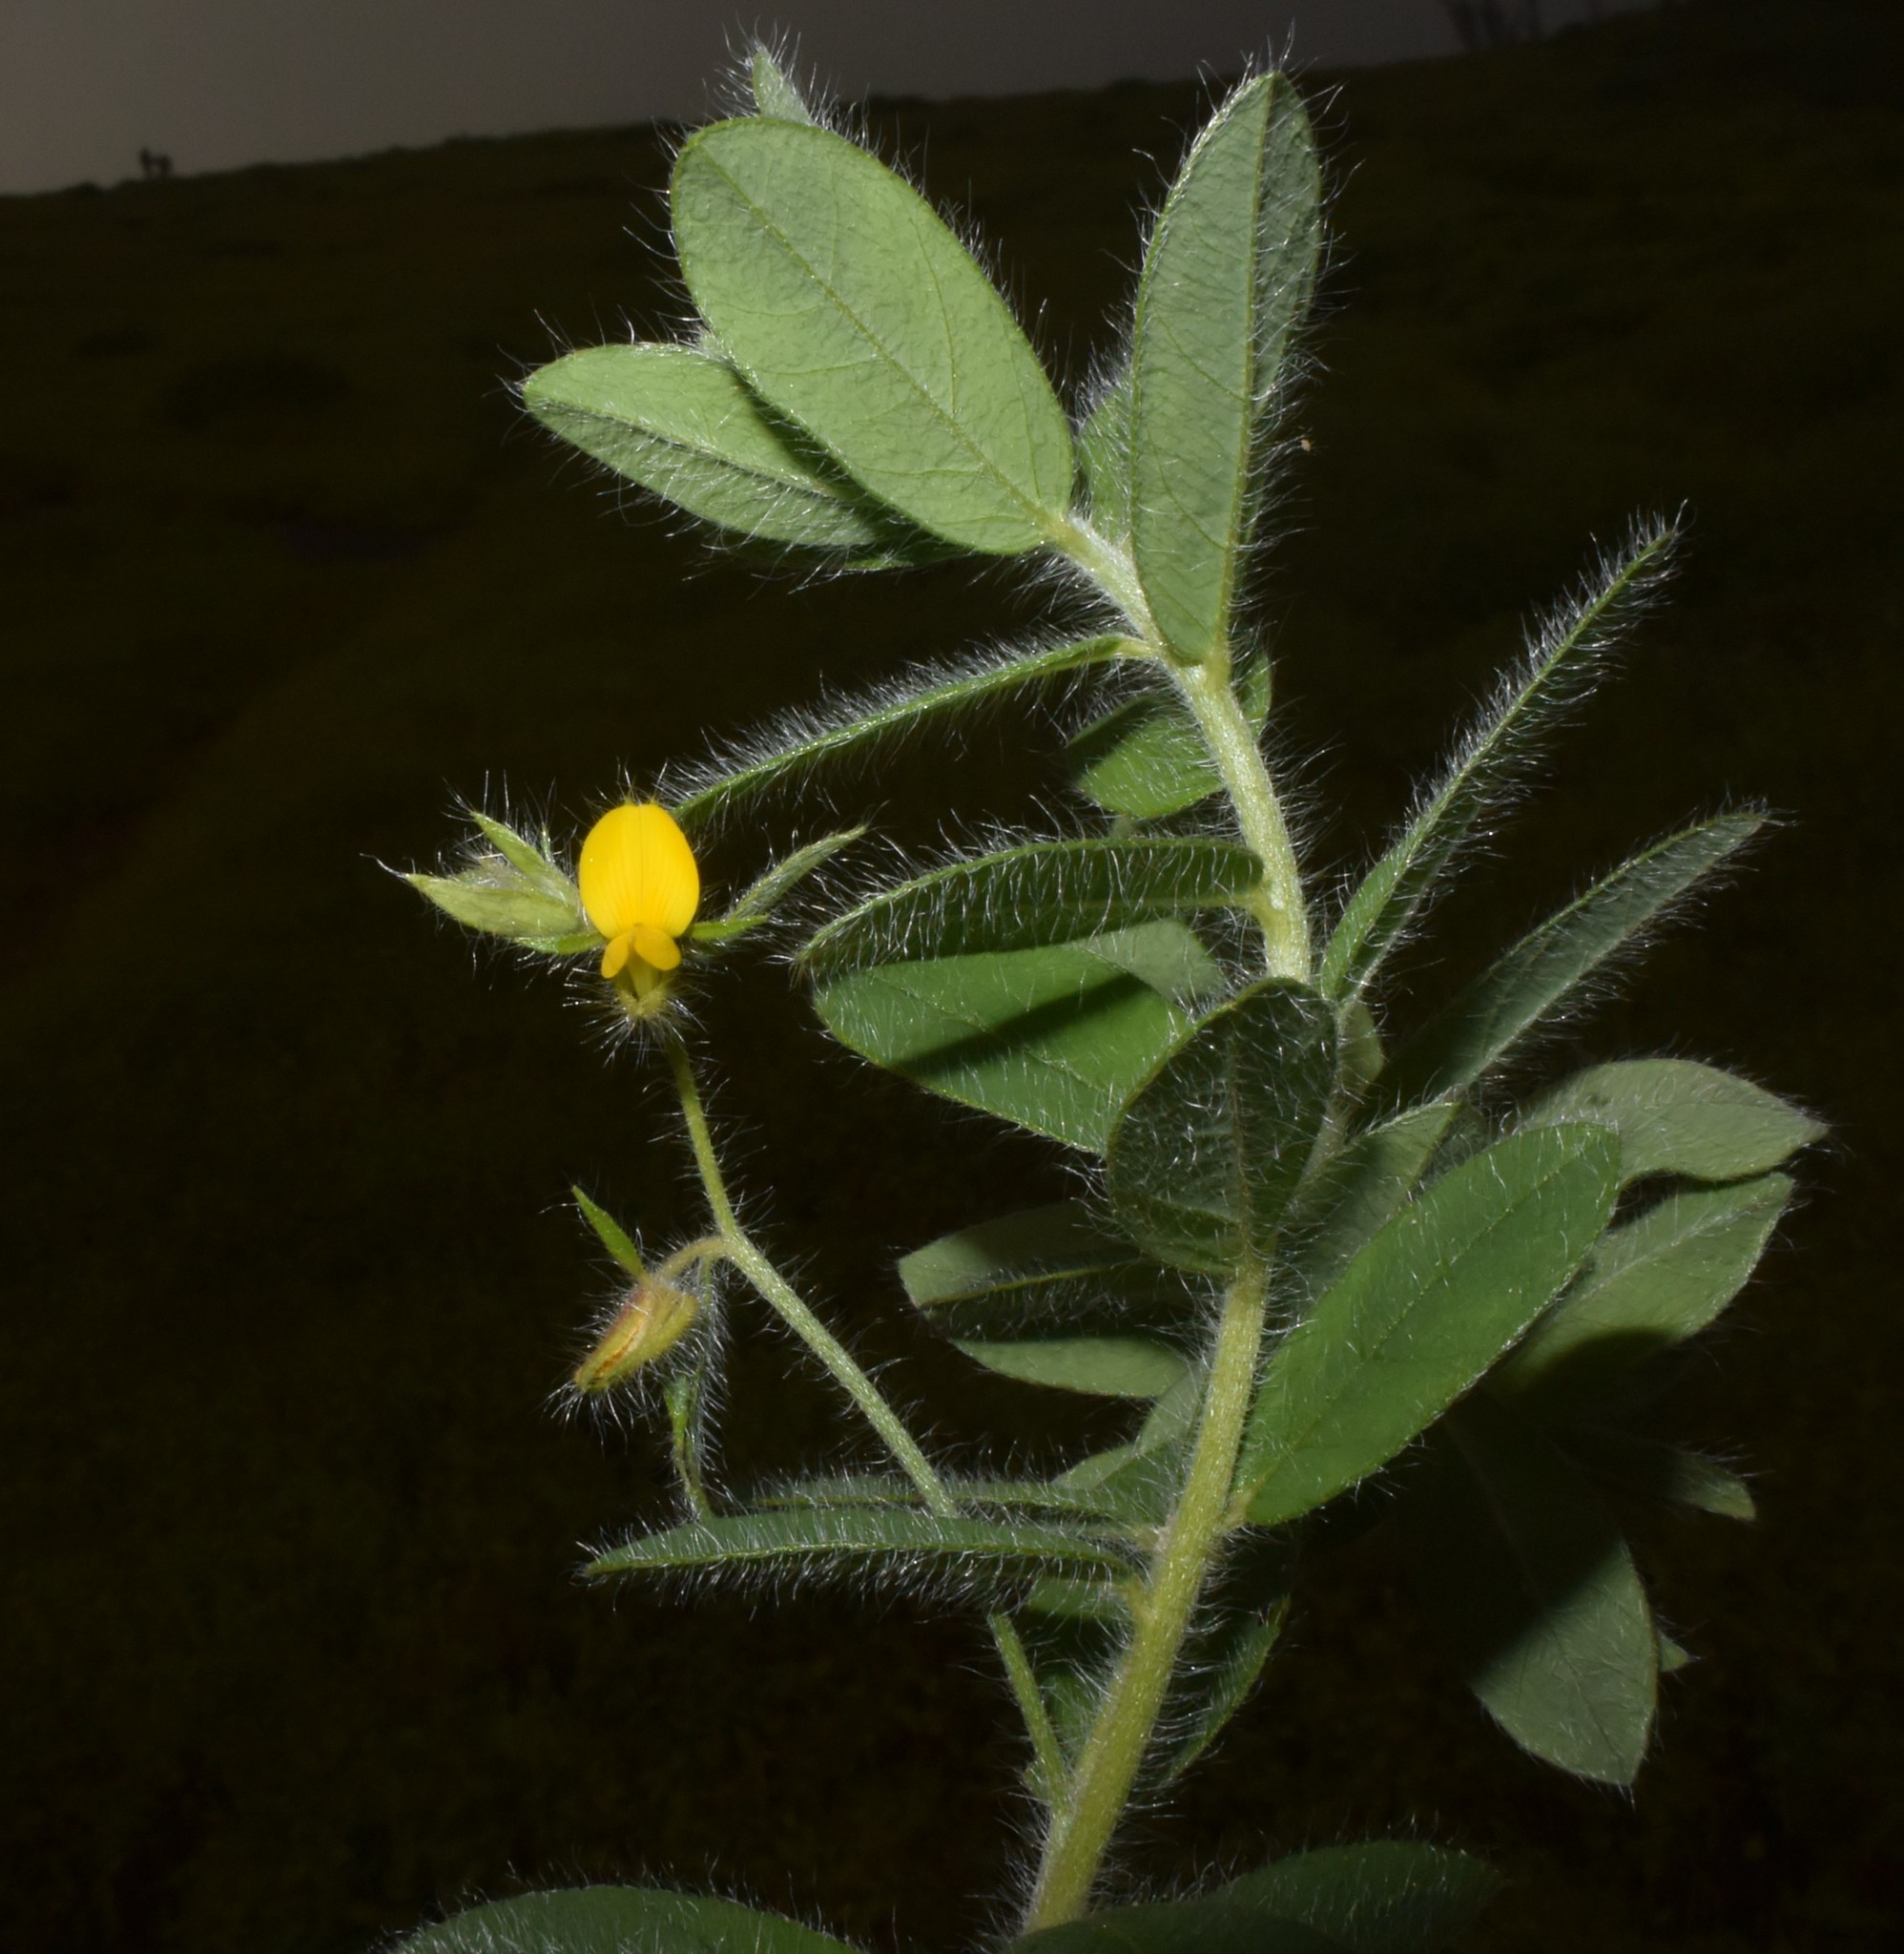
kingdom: Plantae
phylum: Tracheophyta
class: Magnoliopsida
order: Fabales
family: Fabaceae
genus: Crotalaria
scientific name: Crotalaria vestita
